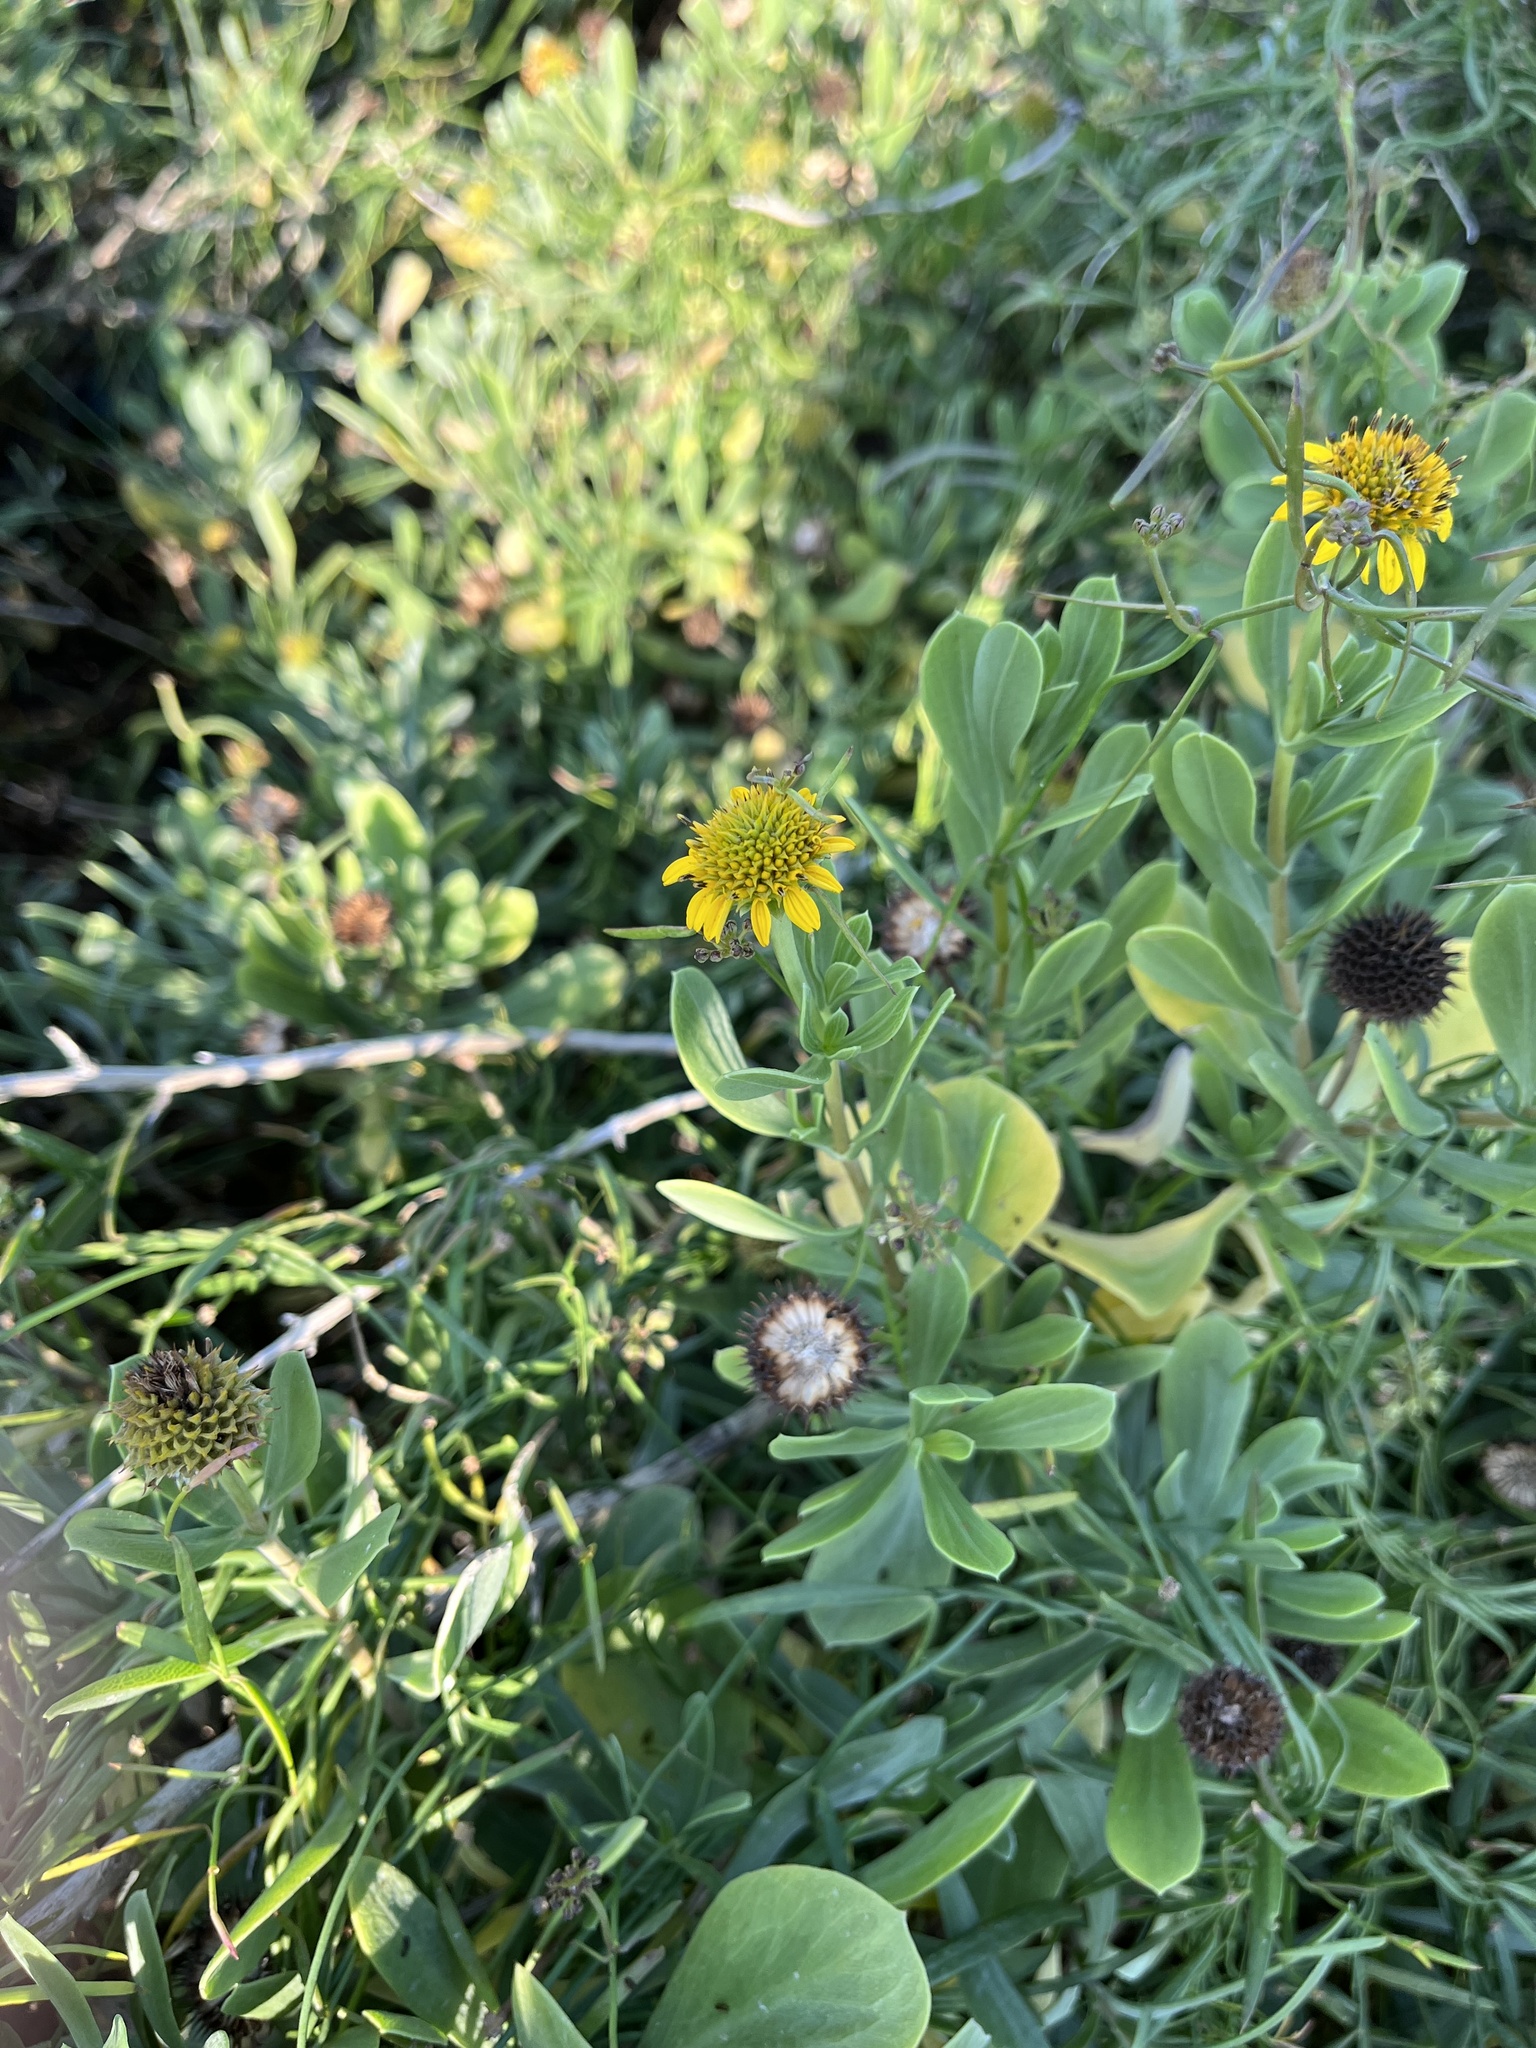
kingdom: Plantae
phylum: Tracheophyta
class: Magnoliopsida
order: Asterales
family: Asteraceae
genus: Borrichia
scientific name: Borrichia frutescens
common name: Sea oxeye
